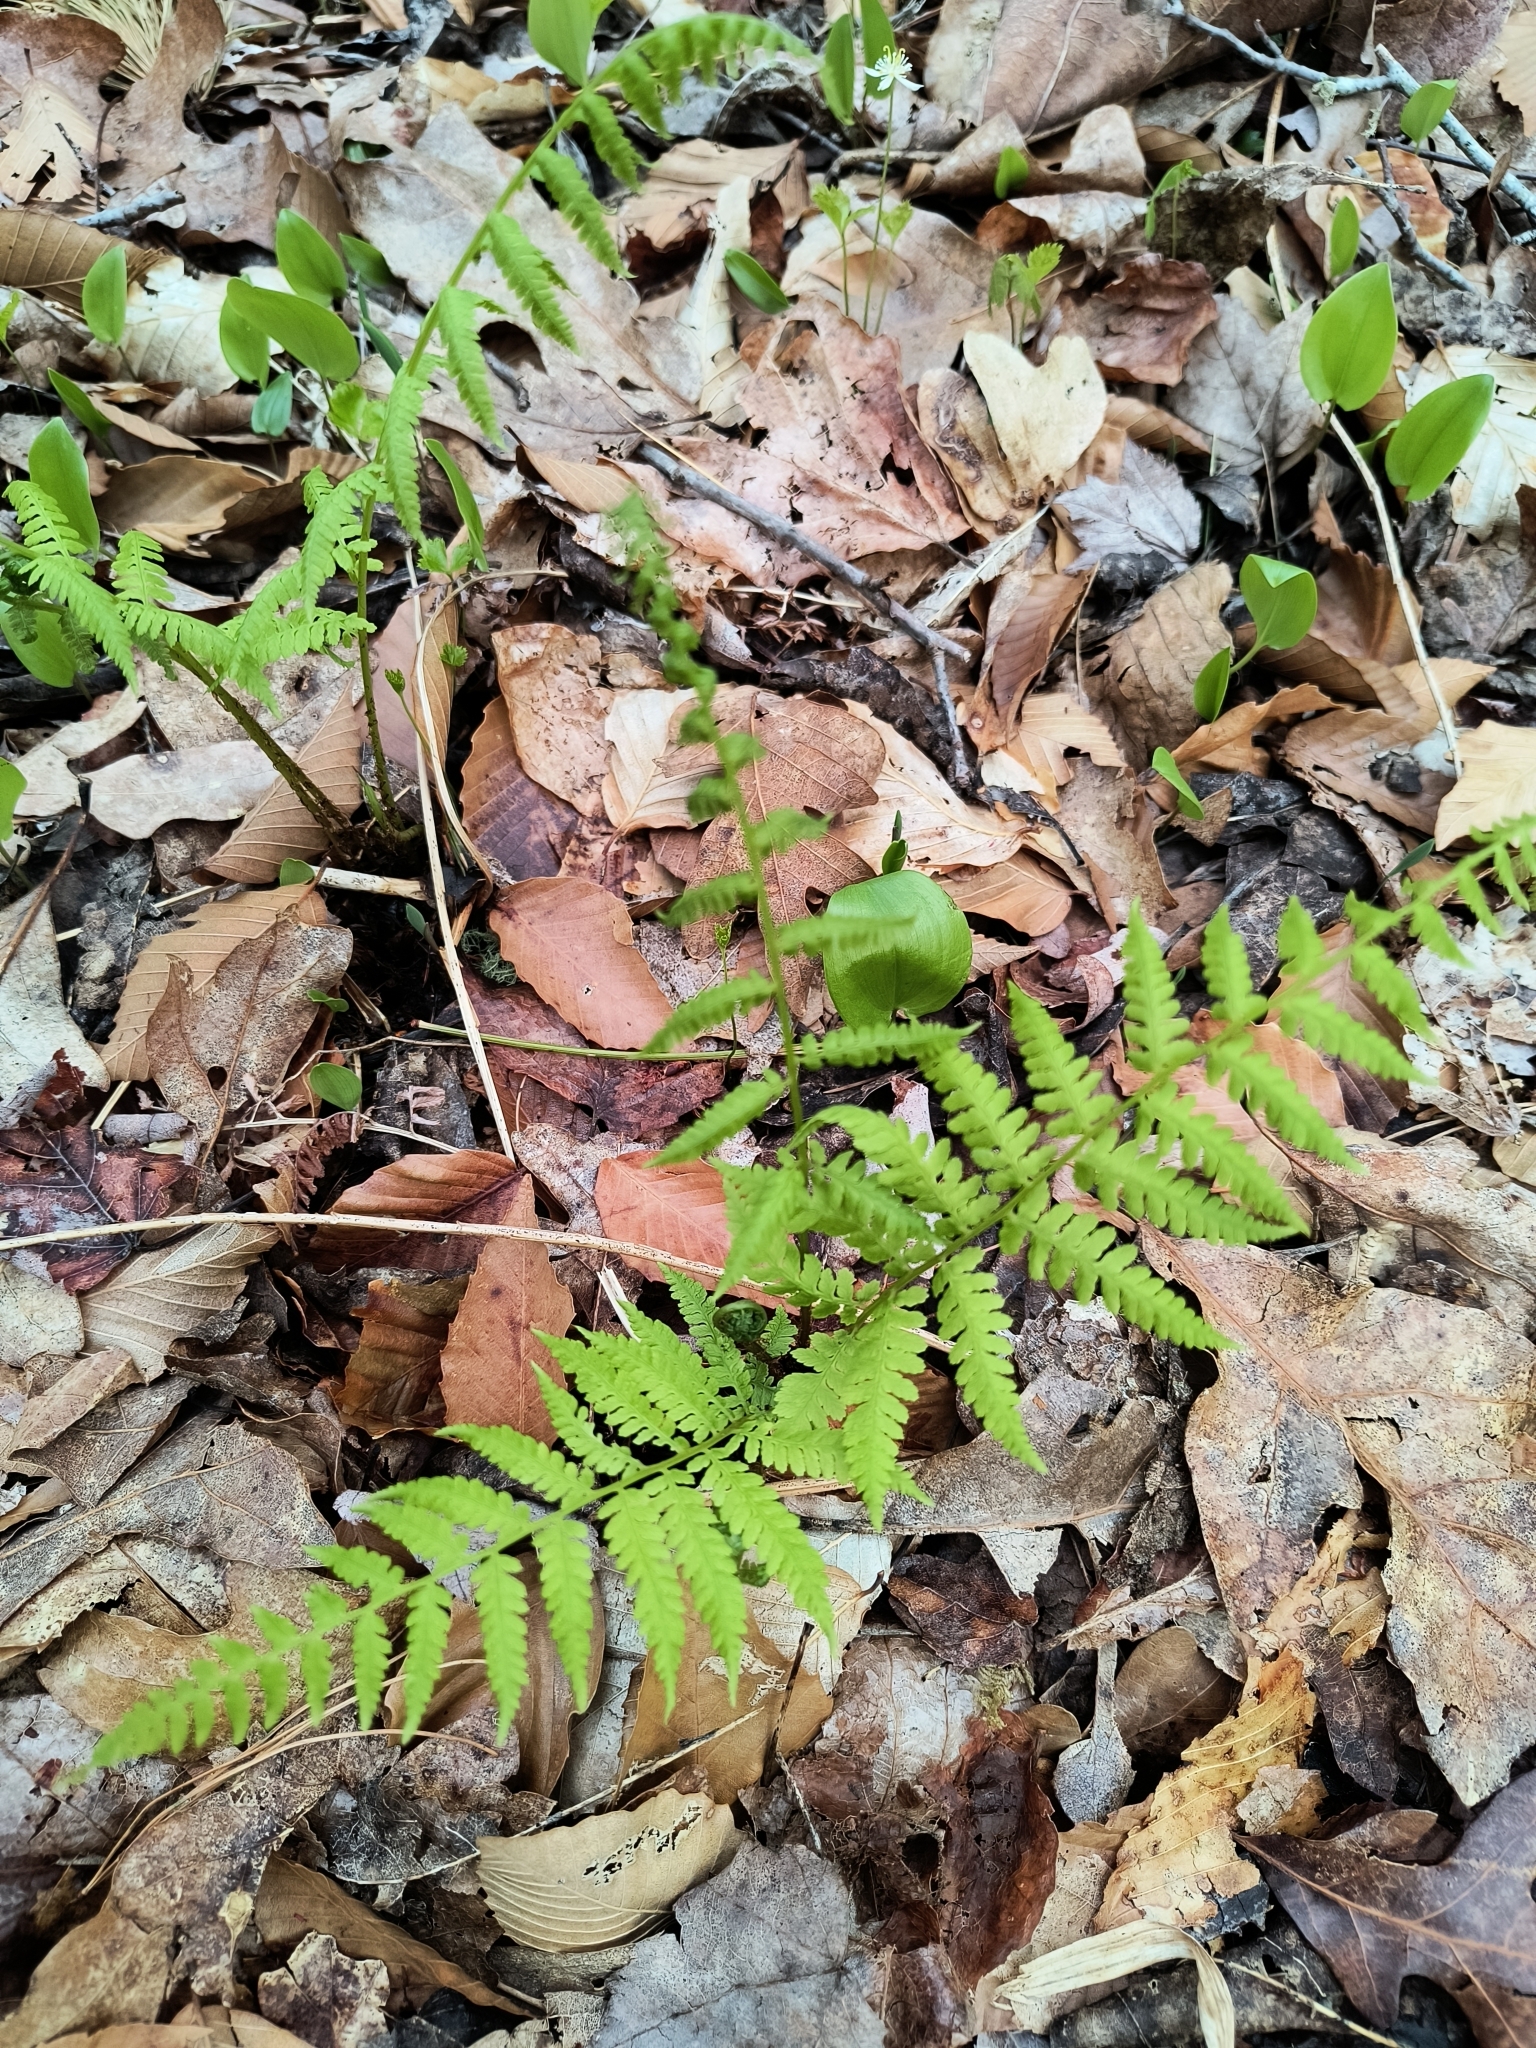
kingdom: Plantae
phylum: Tracheophyta
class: Polypodiopsida
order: Polypodiales
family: Athyriaceae
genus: Athyrium
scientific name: Athyrium angustum
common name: Northern lady fern
